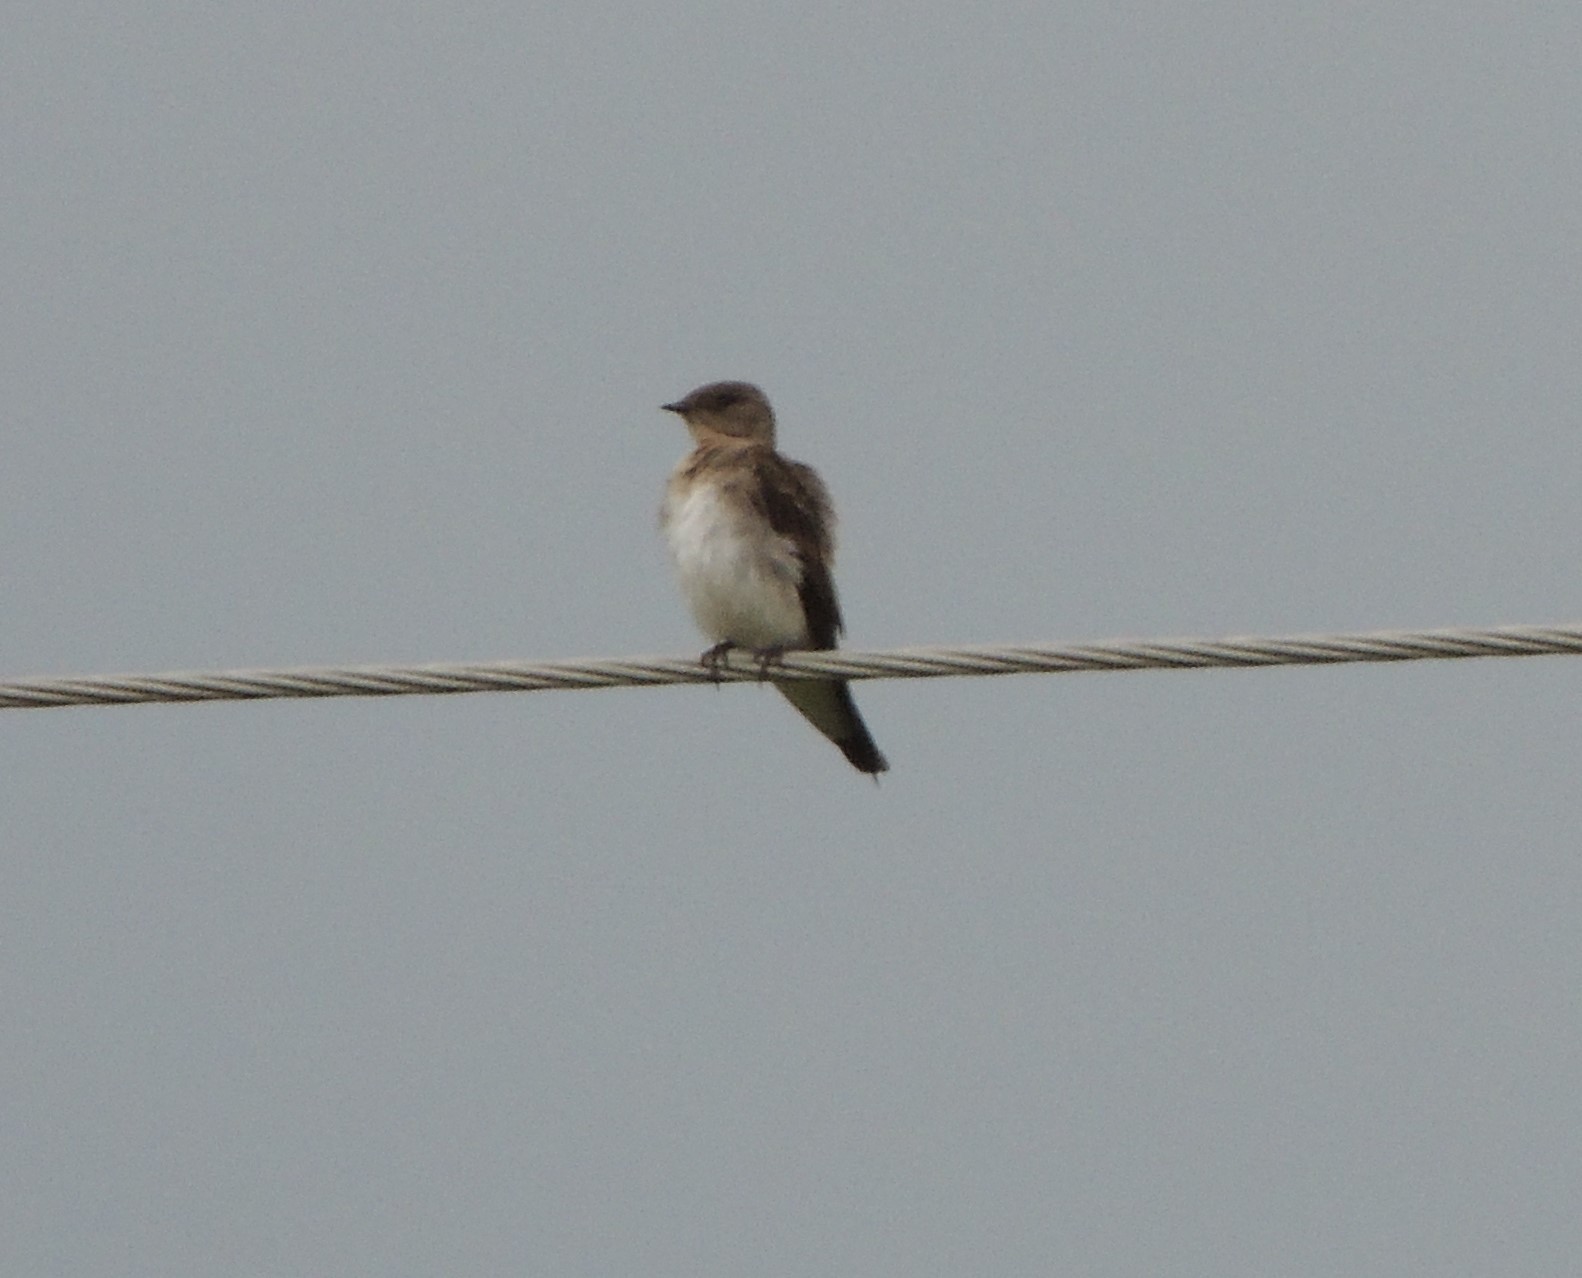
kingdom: Animalia
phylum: Chordata
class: Aves
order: Passeriformes
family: Hirundinidae
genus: Stelgidopteryx
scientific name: Stelgidopteryx serripennis
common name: Northern rough-winged swallow
